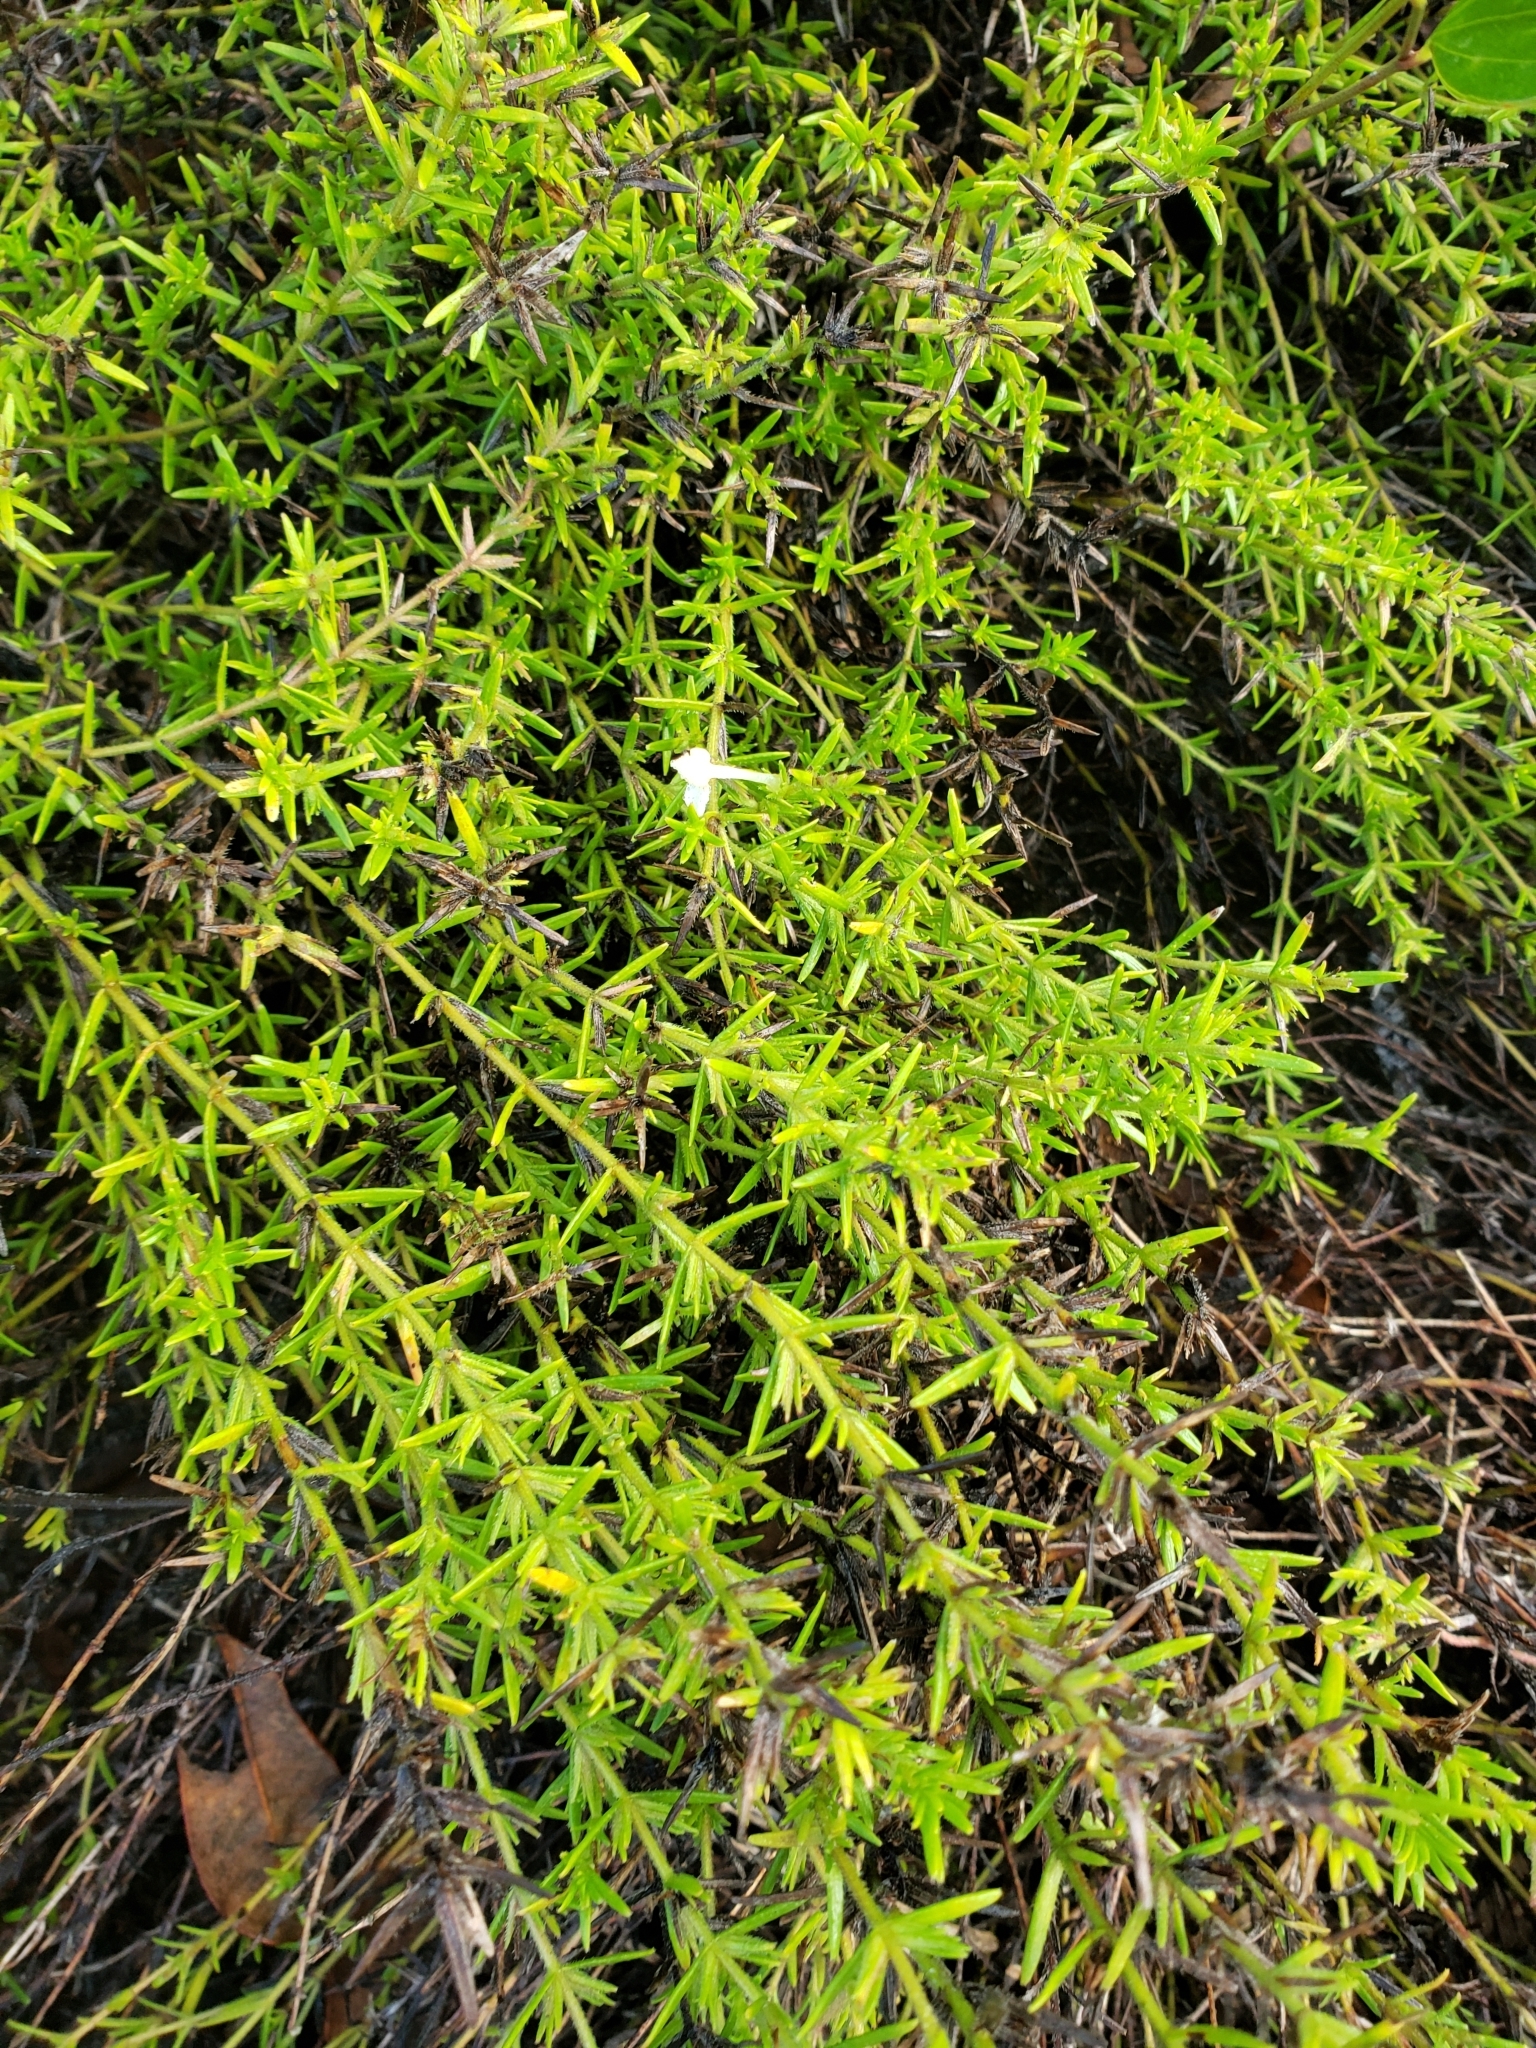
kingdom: Plantae
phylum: Tracheophyta
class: Magnoliopsida
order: Lamiales
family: Plantaginaceae
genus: Gratiola
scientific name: Gratiola hispida
